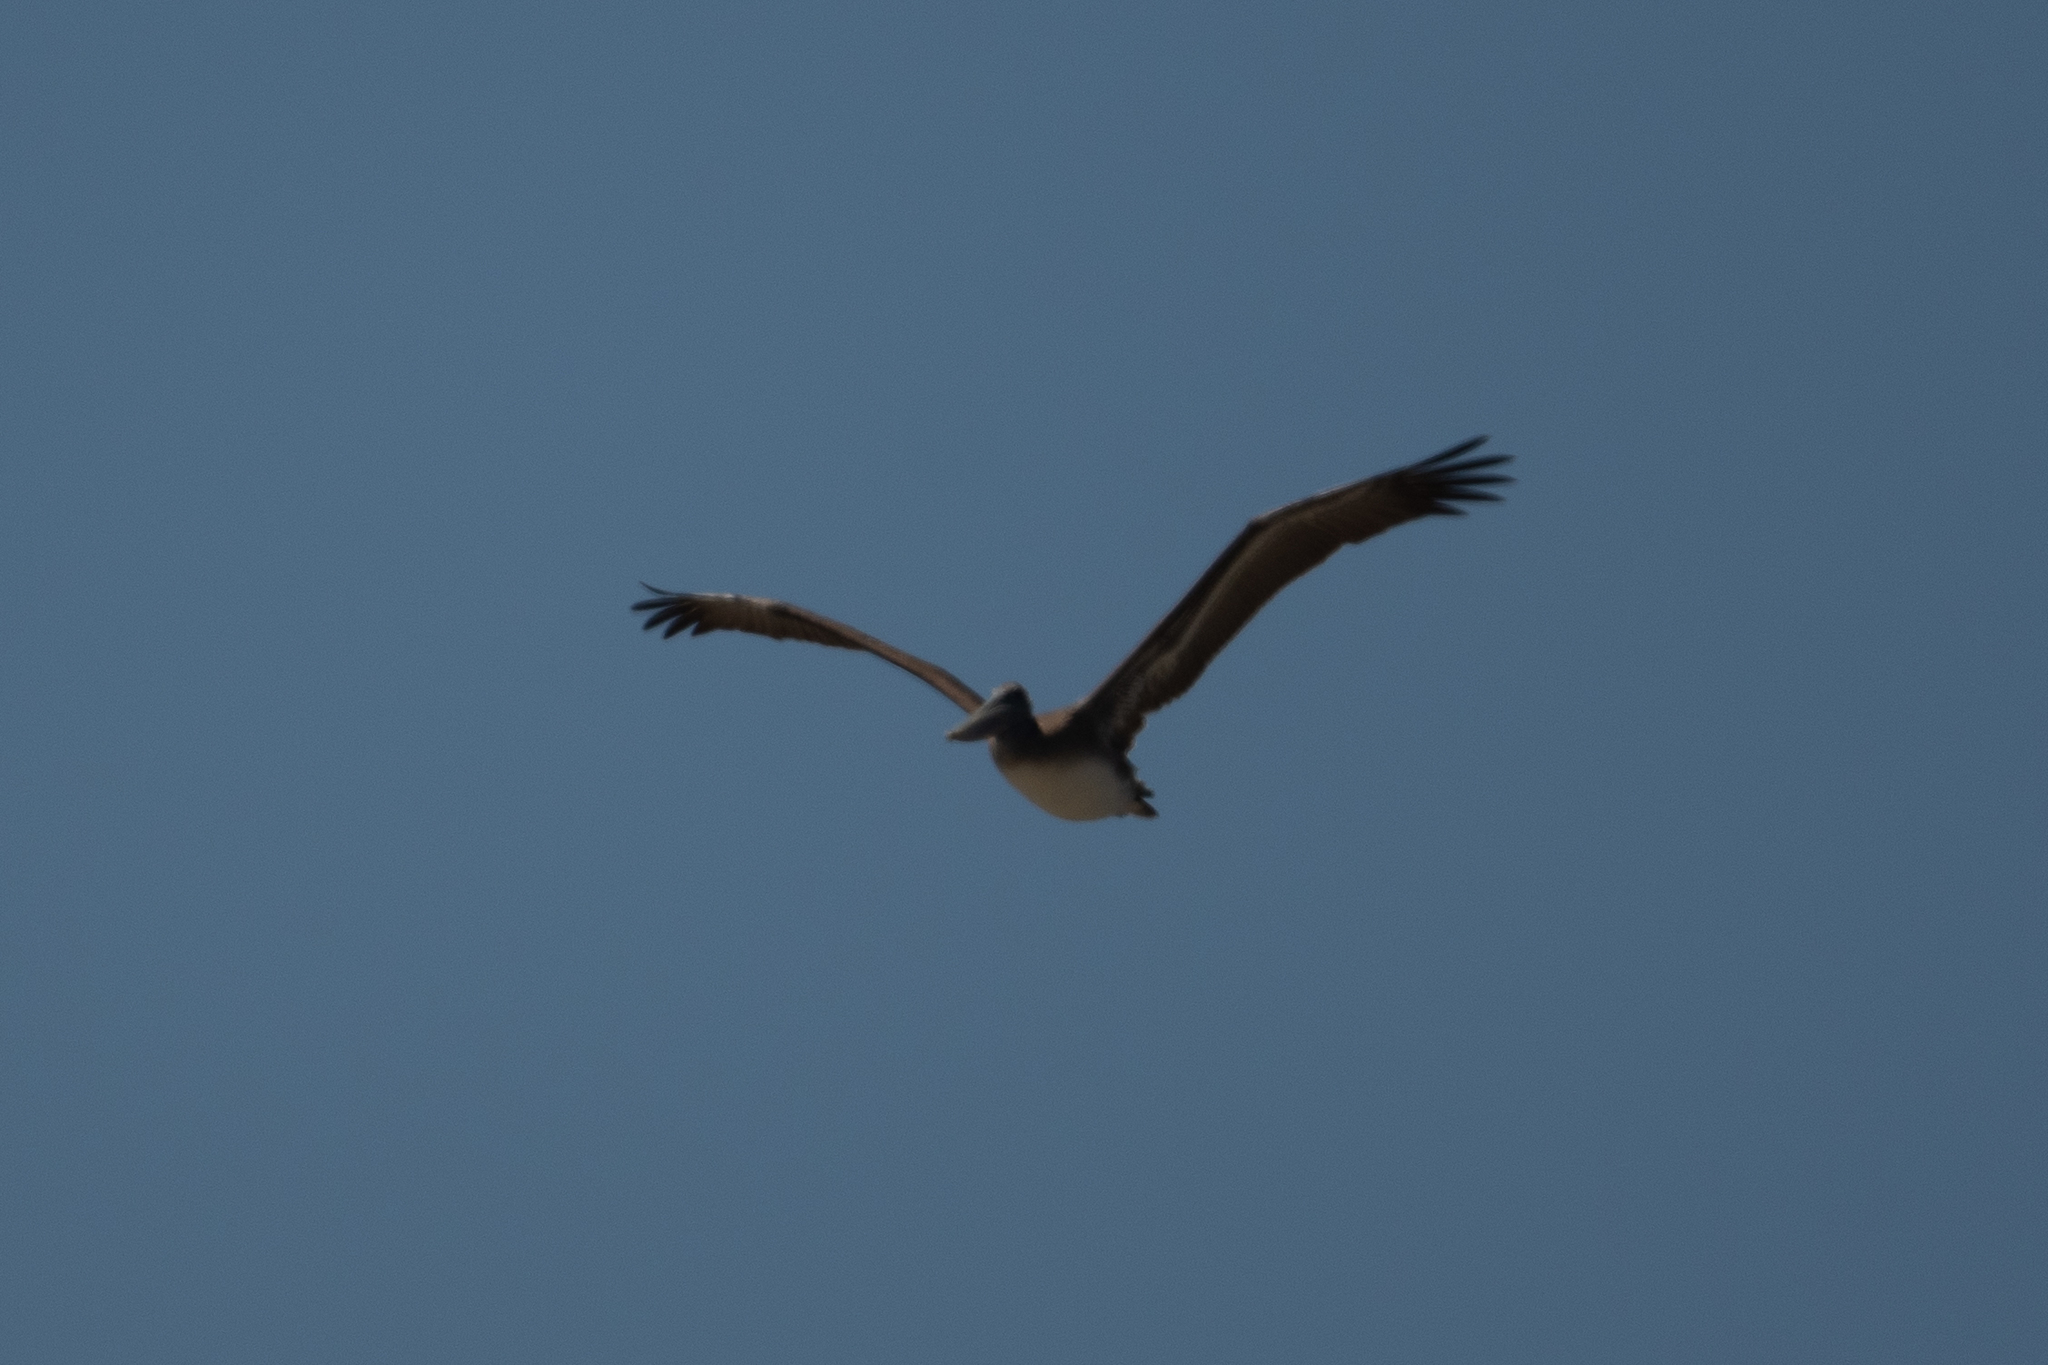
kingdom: Animalia
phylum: Chordata
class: Aves
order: Pelecaniformes
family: Pelecanidae
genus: Pelecanus
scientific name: Pelecanus occidentalis
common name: Brown pelican
